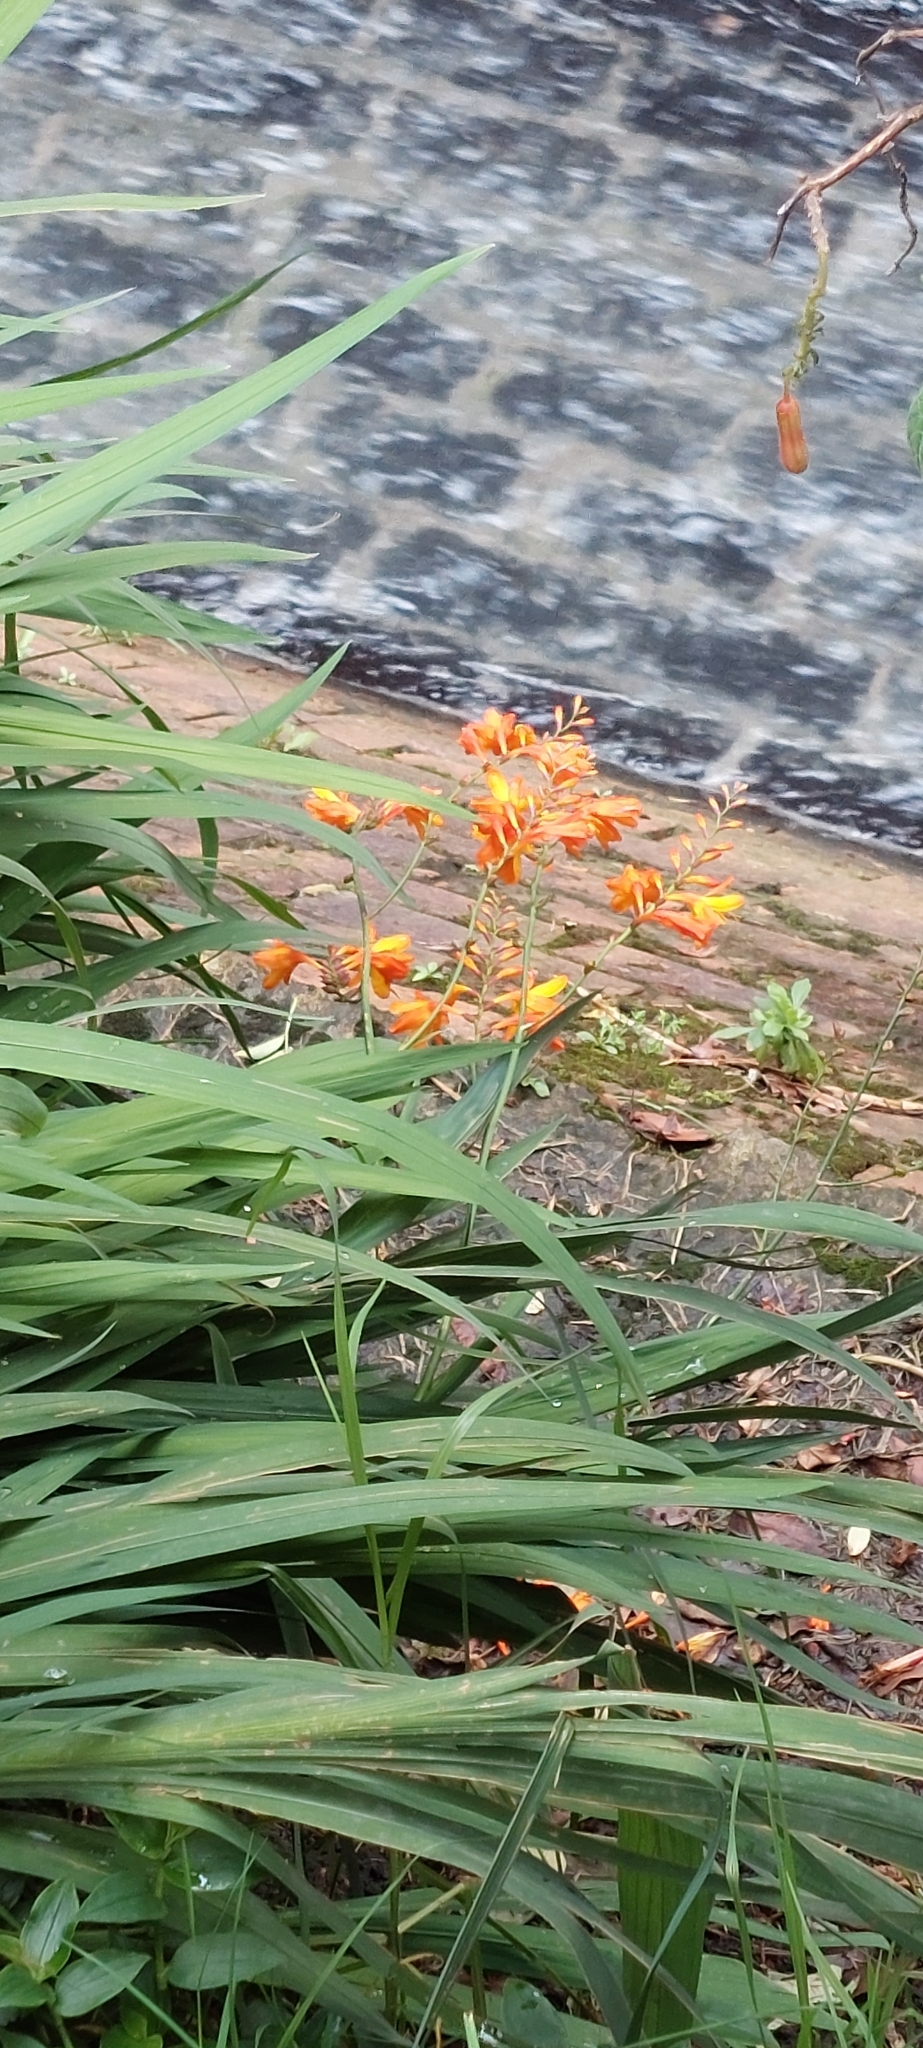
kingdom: Plantae
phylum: Tracheophyta
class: Liliopsida
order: Asparagales
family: Iridaceae
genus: Crocosmia
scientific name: Crocosmia crocosmiiflora
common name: Montbretia
